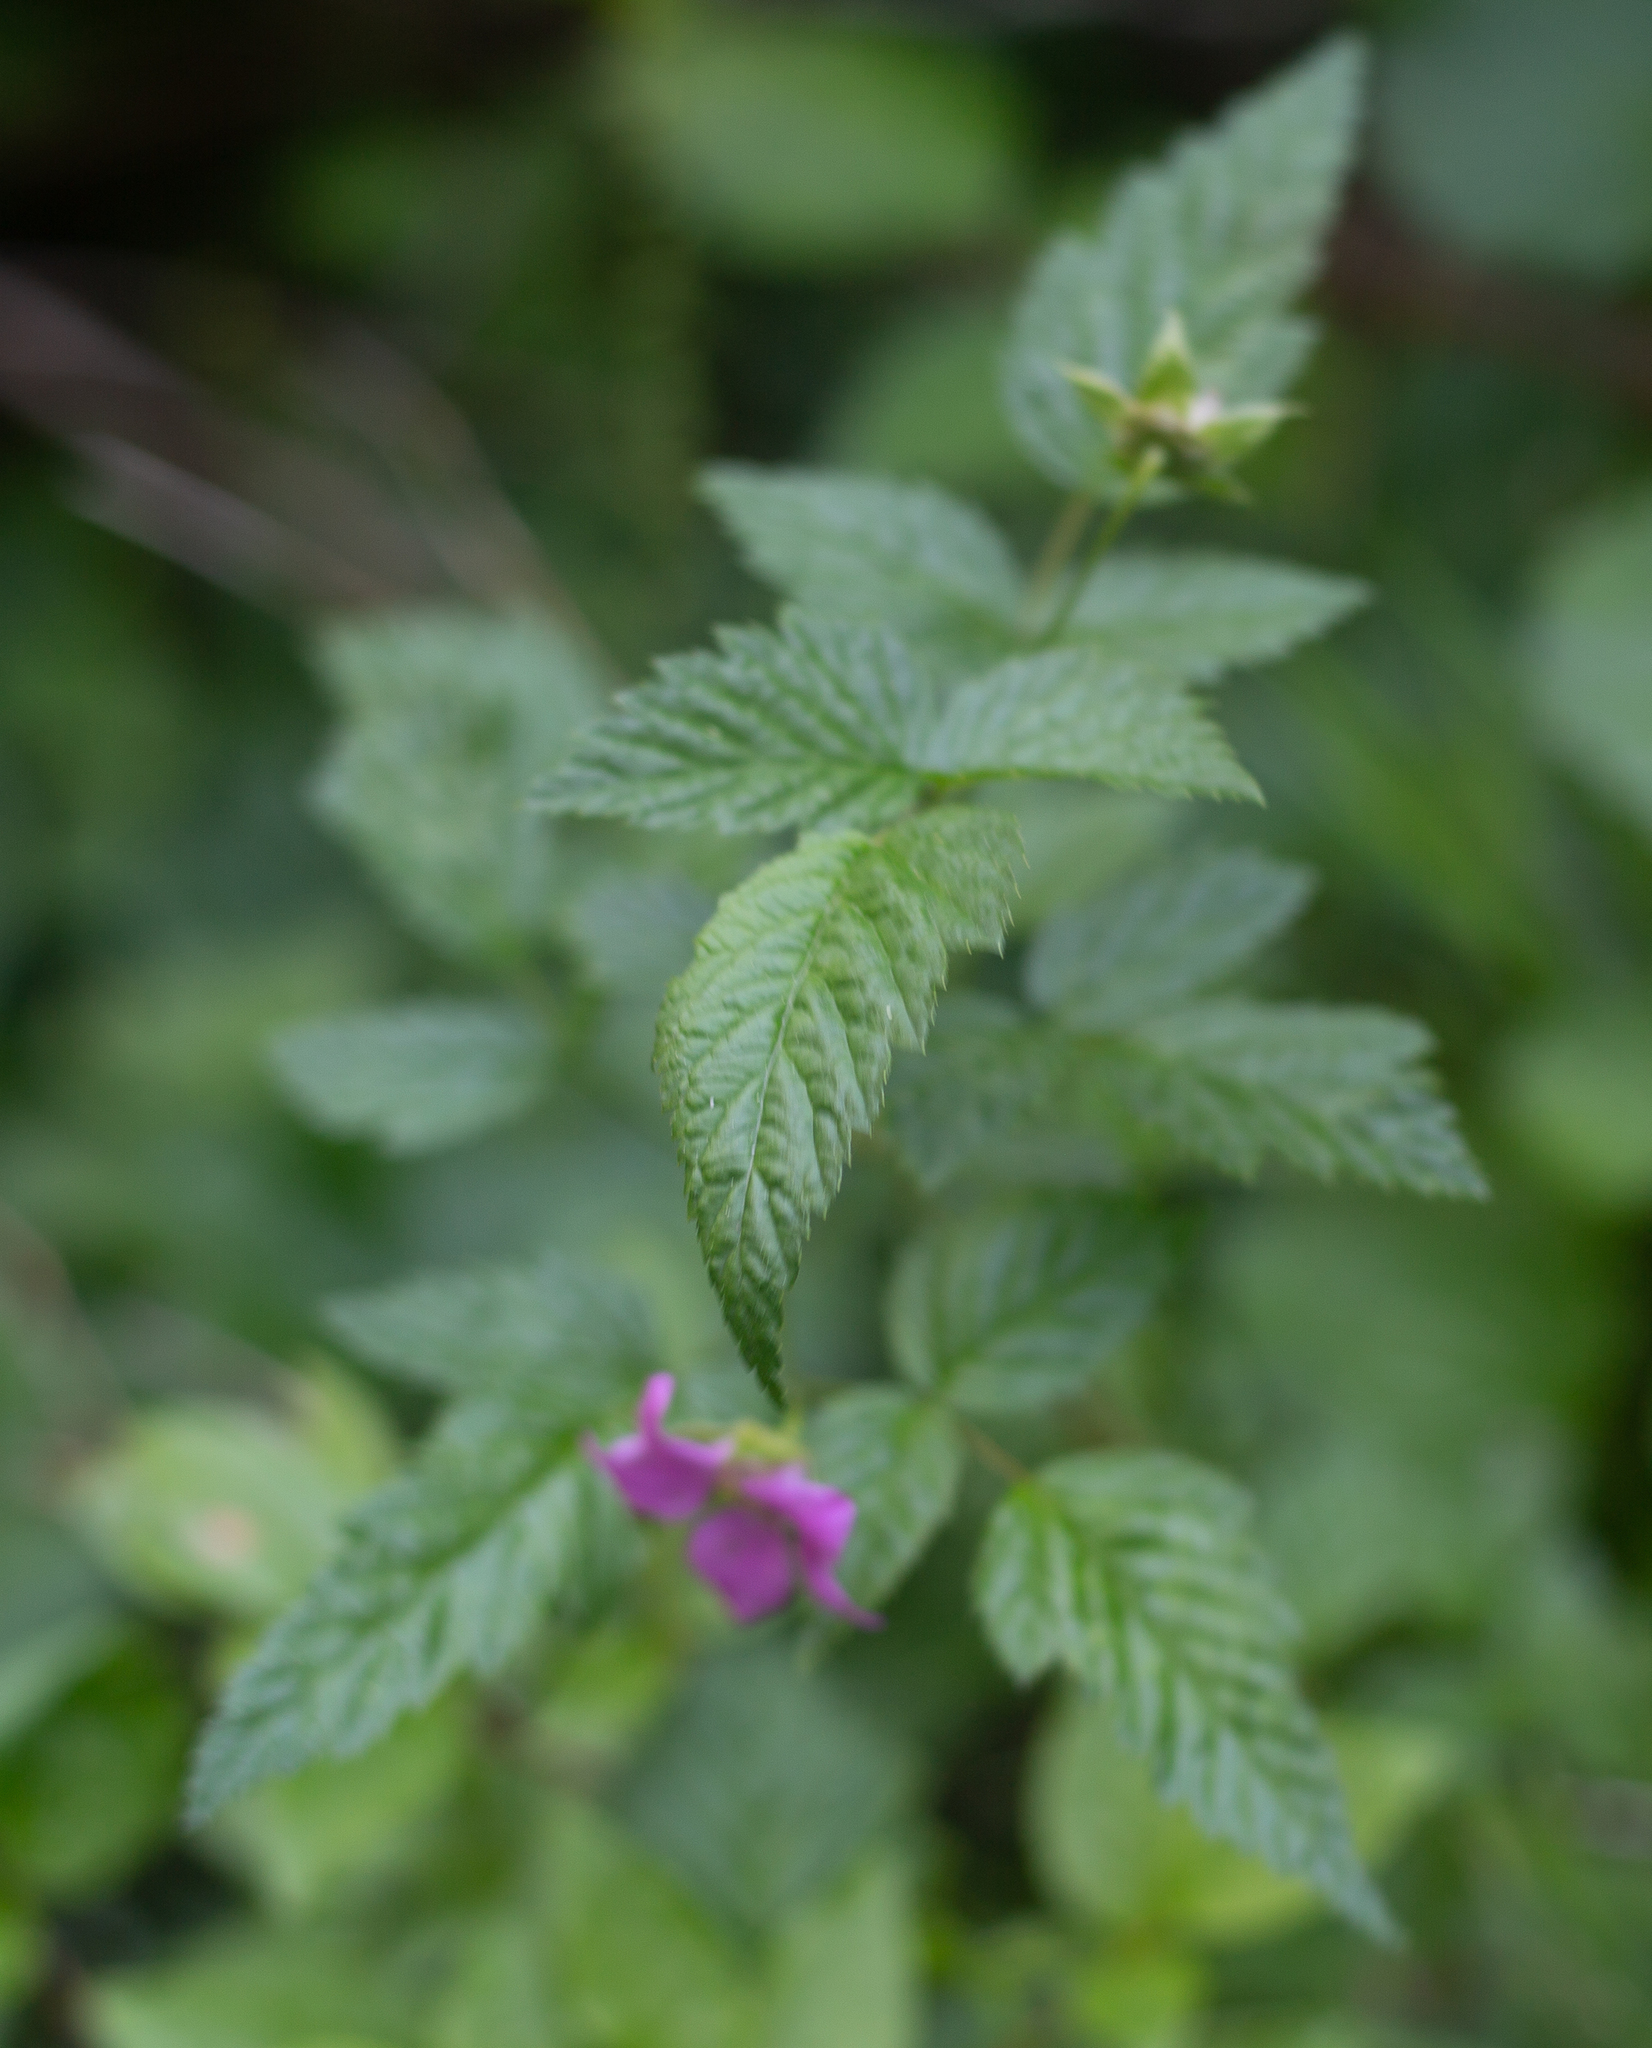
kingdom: Plantae
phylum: Tracheophyta
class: Magnoliopsida
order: Rosales
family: Rosaceae
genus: Rubus
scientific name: Rubus spectabilis
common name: Salmonberry
